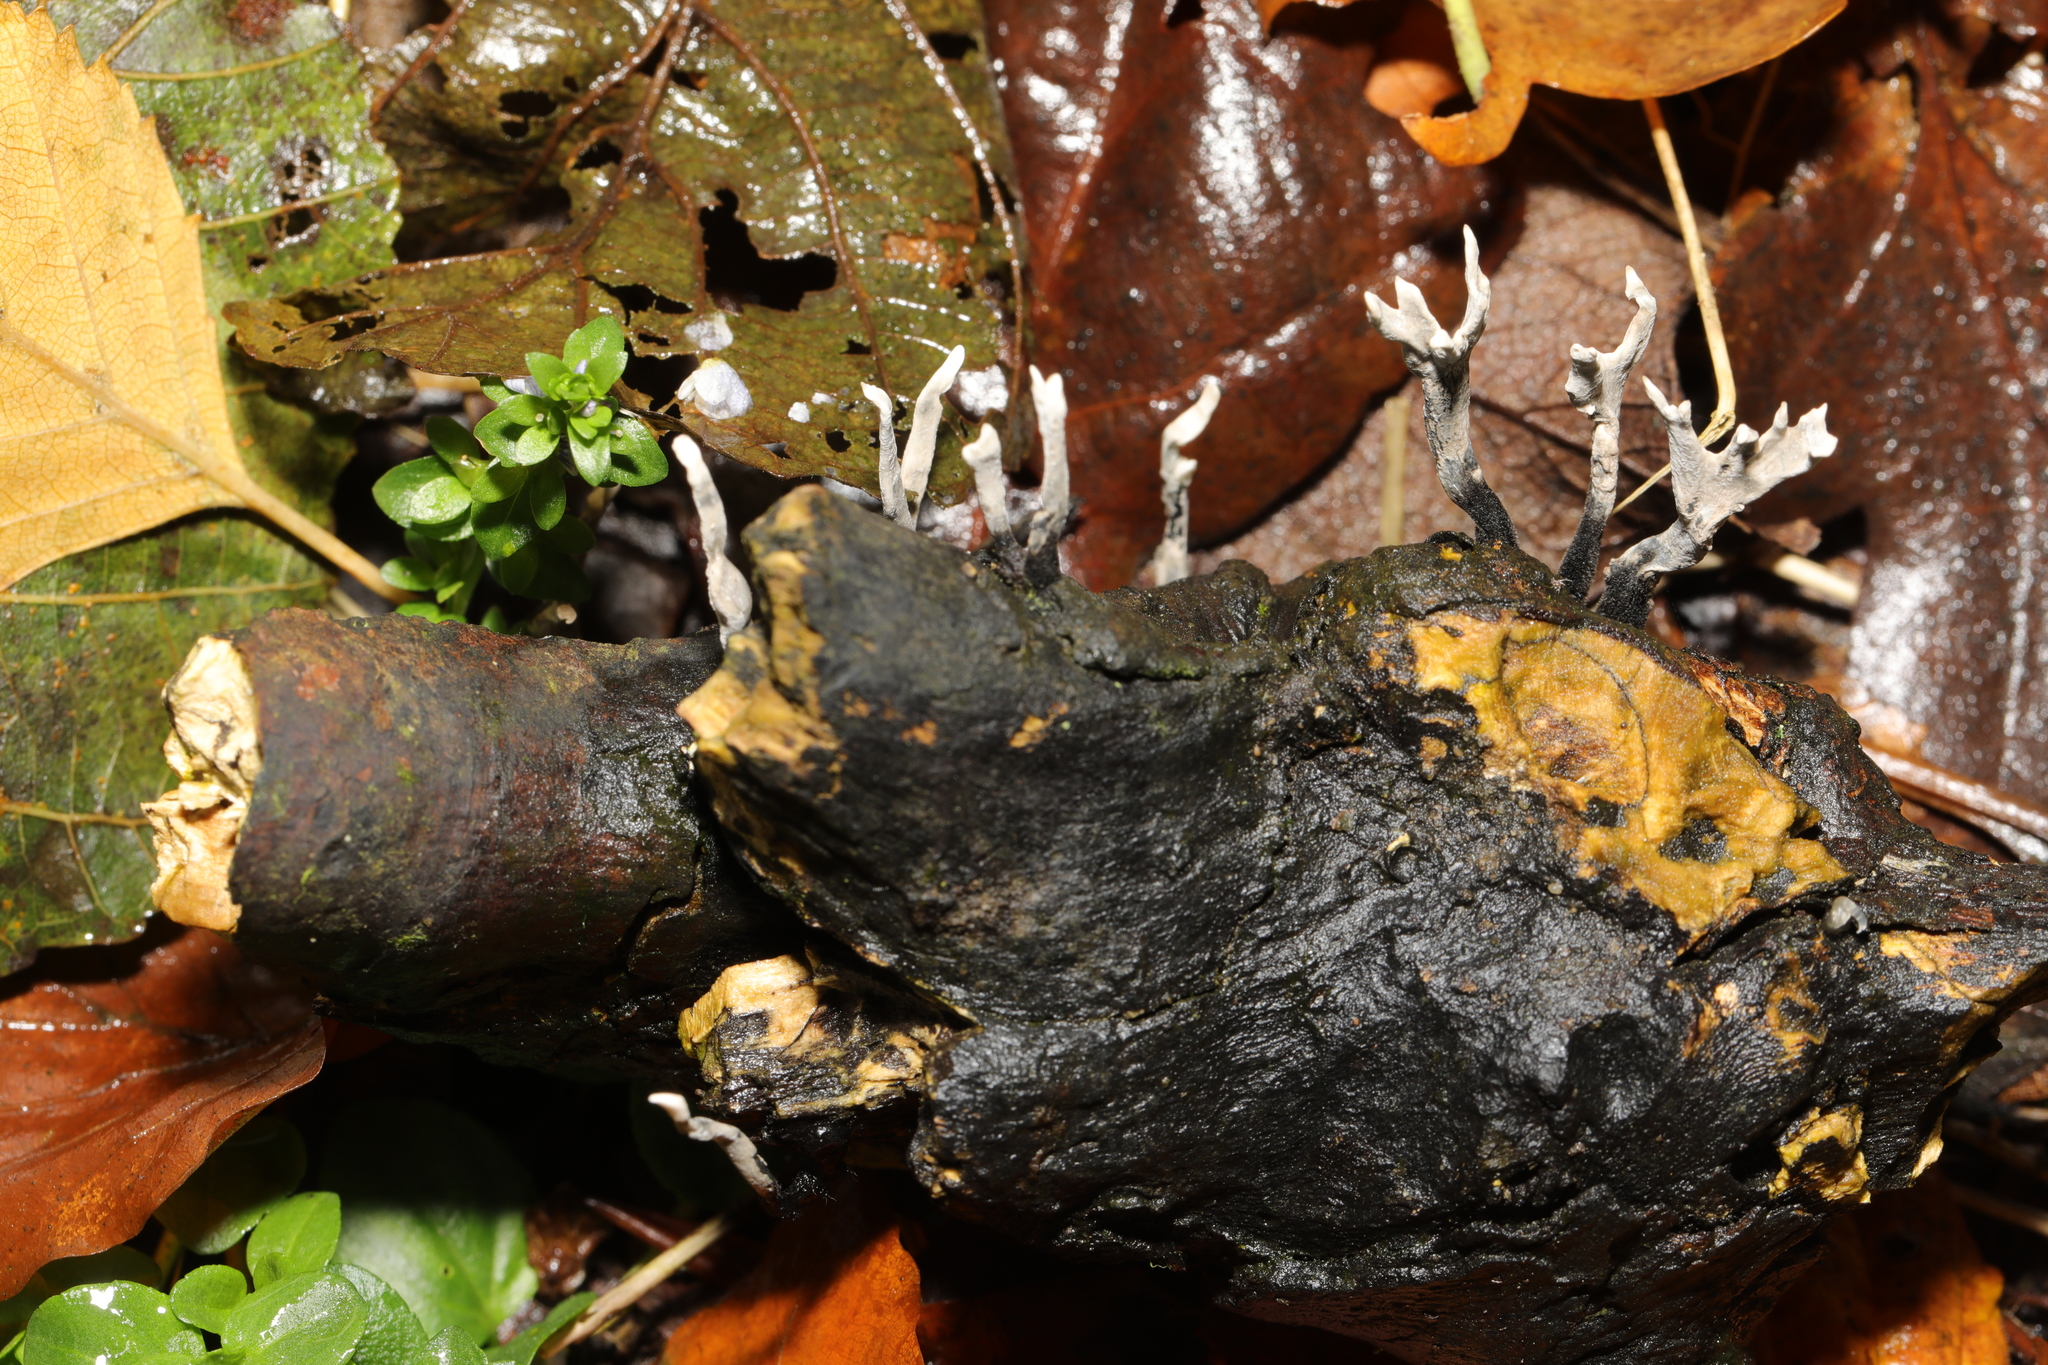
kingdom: Fungi
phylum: Ascomycota
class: Sordariomycetes
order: Xylariales
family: Xylariaceae
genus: Xylaria
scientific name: Xylaria hypoxylon
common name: Candle-snuff fungus
